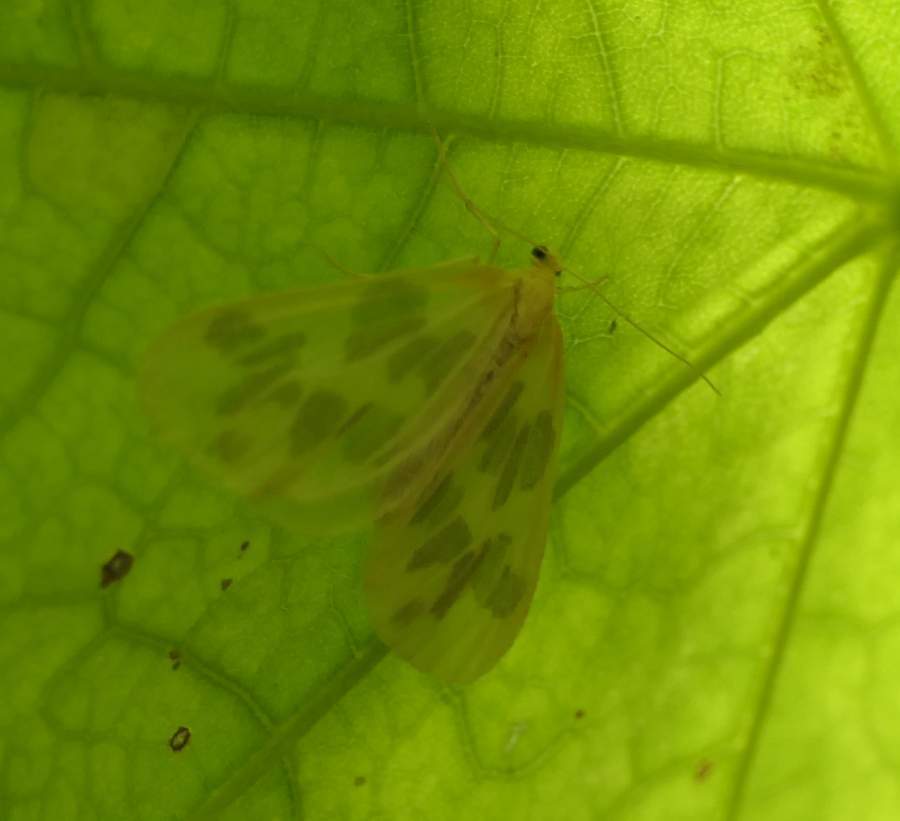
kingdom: Animalia
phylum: Arthropoda
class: Insecta
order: Lepidoptera
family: Geometridae
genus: Eubaphe
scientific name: Eubaphe mendica
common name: Beggar
